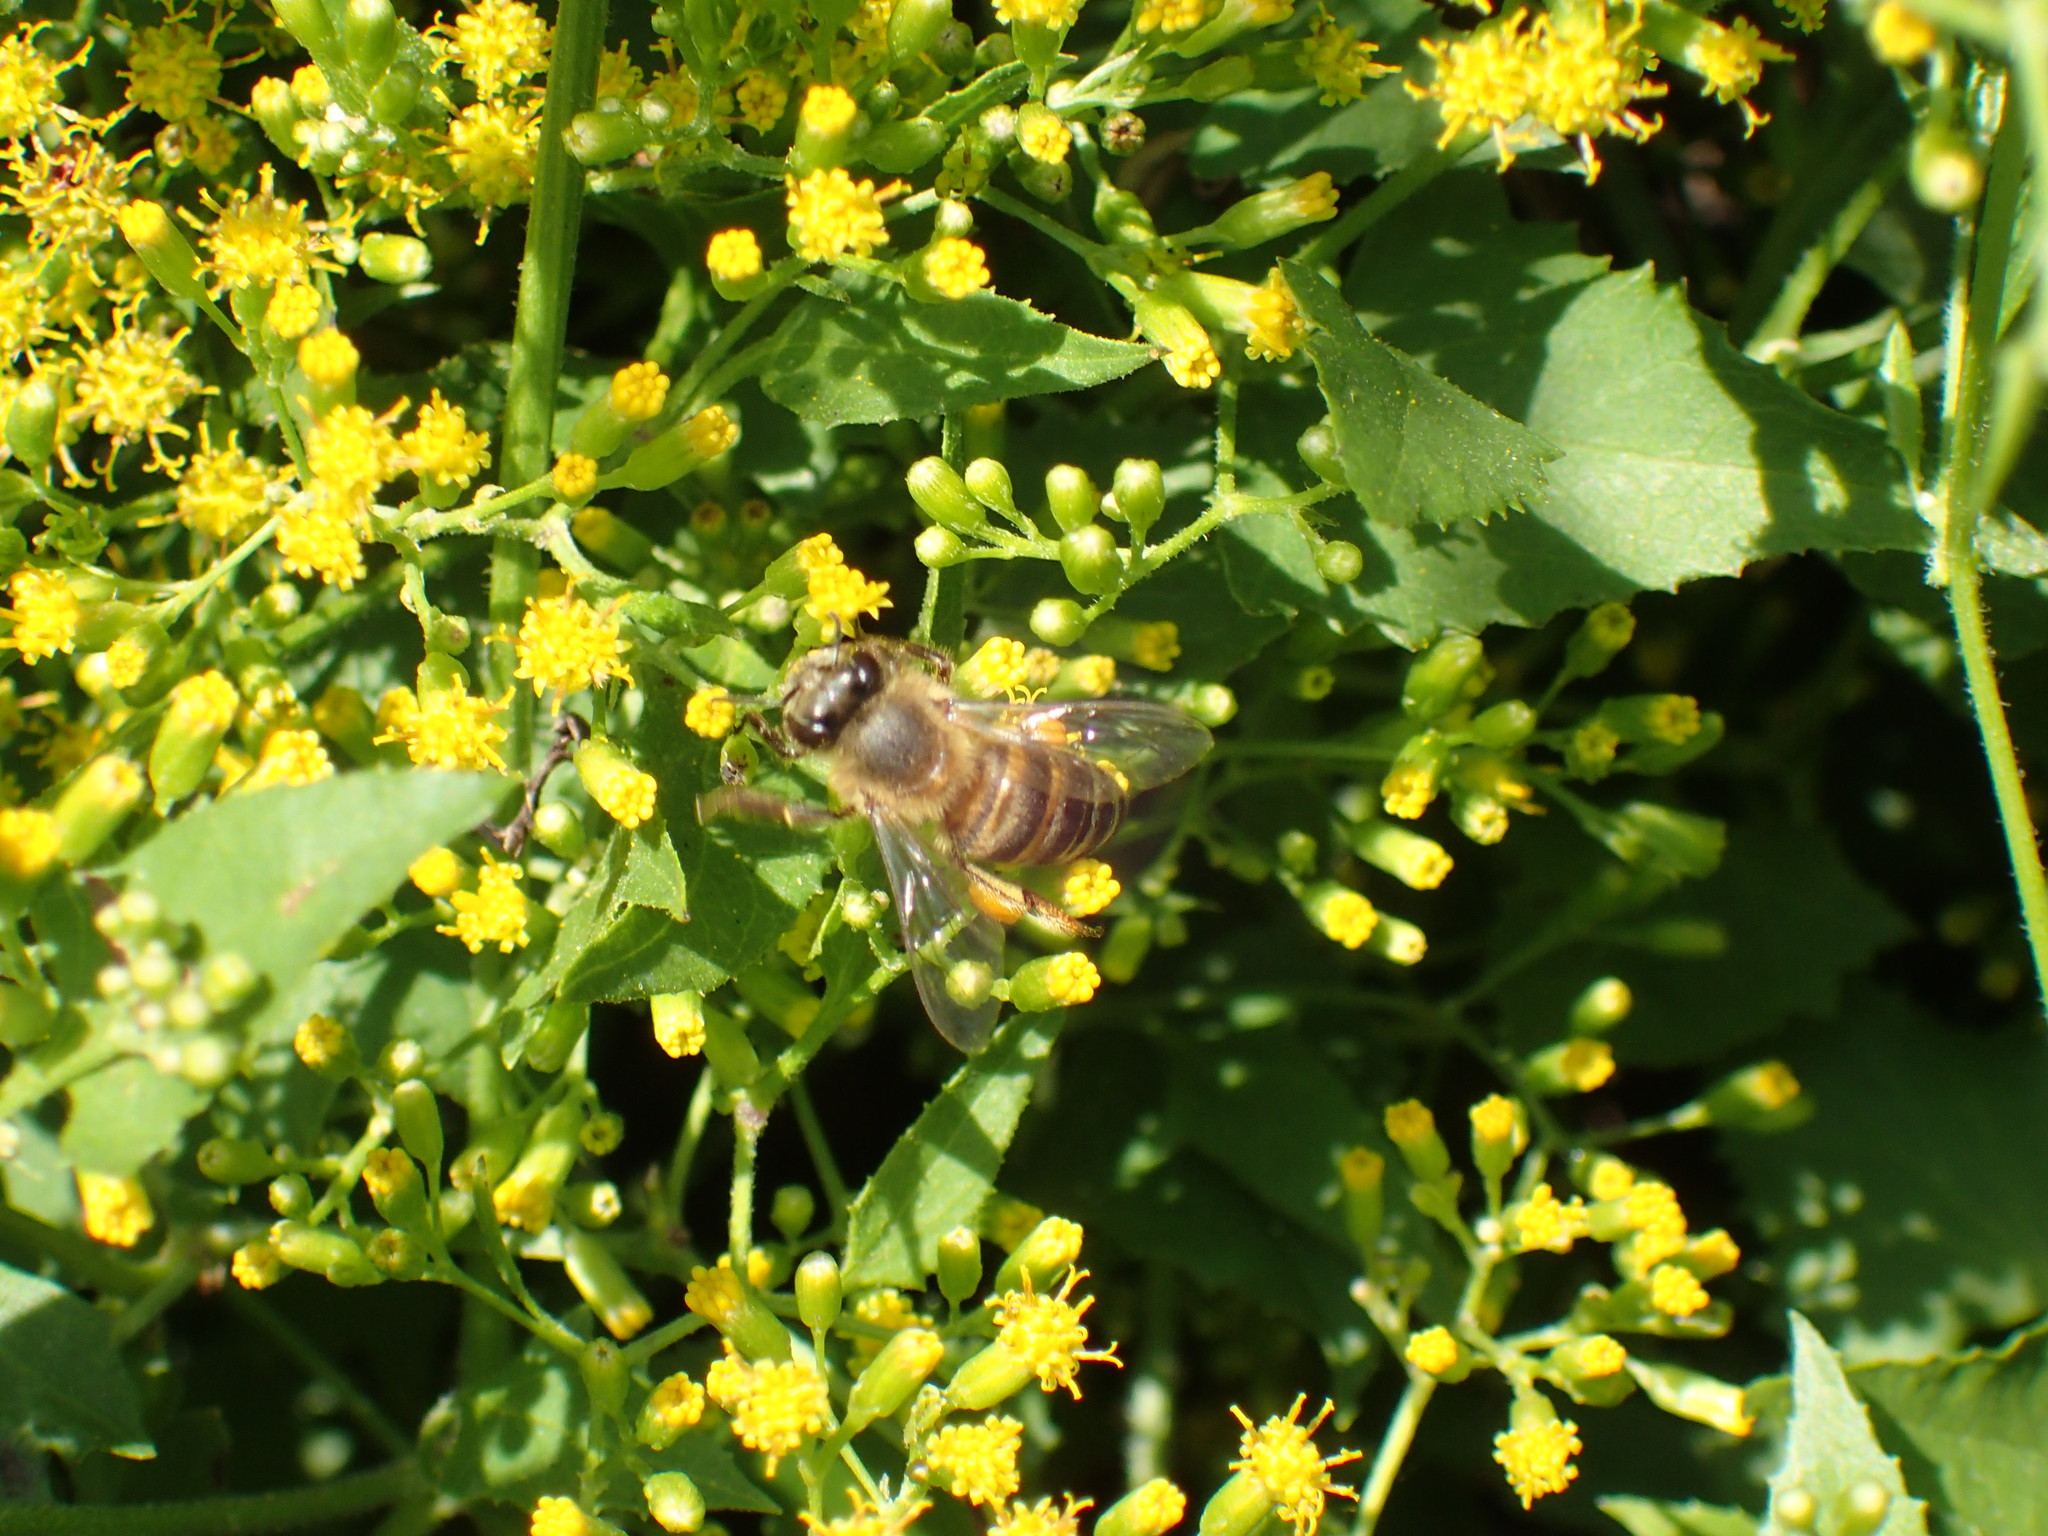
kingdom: Animalia
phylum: Arthropoda
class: Insecta
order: Hymenoptera
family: Apidae
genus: Apis
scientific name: Apis mellifera
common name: Honey bee
